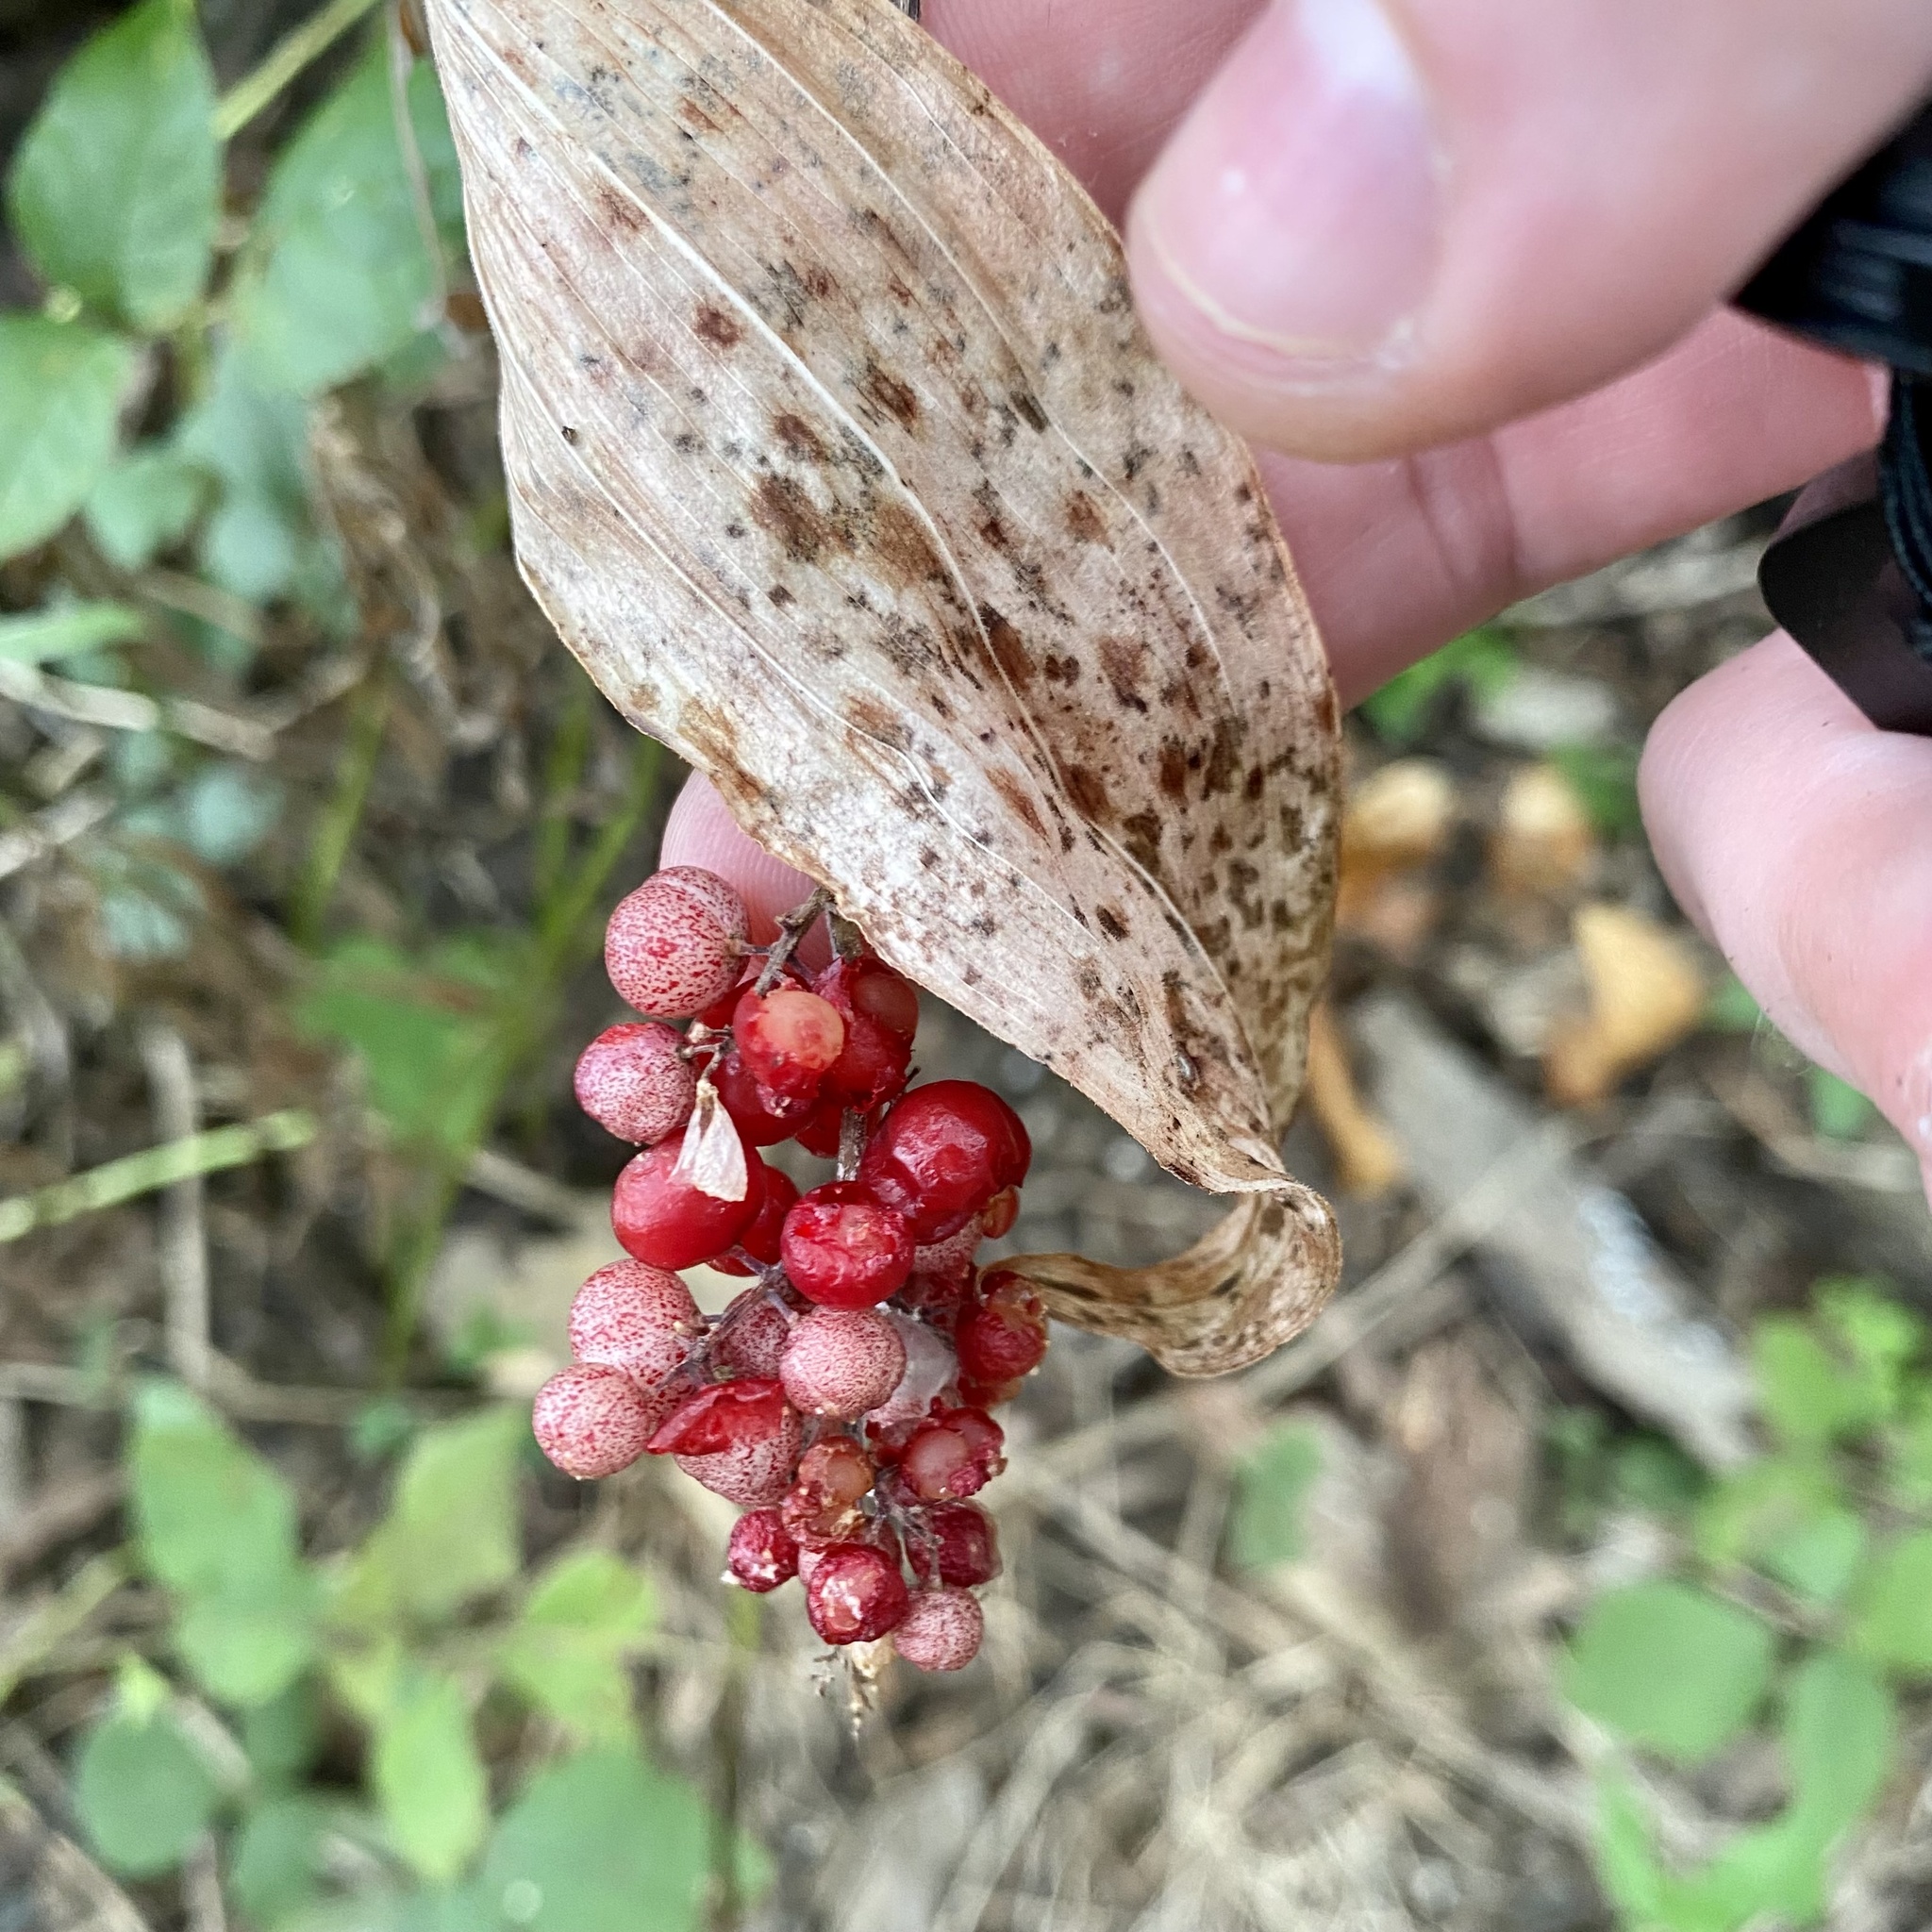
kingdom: Plantae
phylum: Tracheophyta
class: Liliopsida
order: Asparagales
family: Asparagaceae
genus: Maianthemum
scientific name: Maianthemum racemosum
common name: False spikenard
